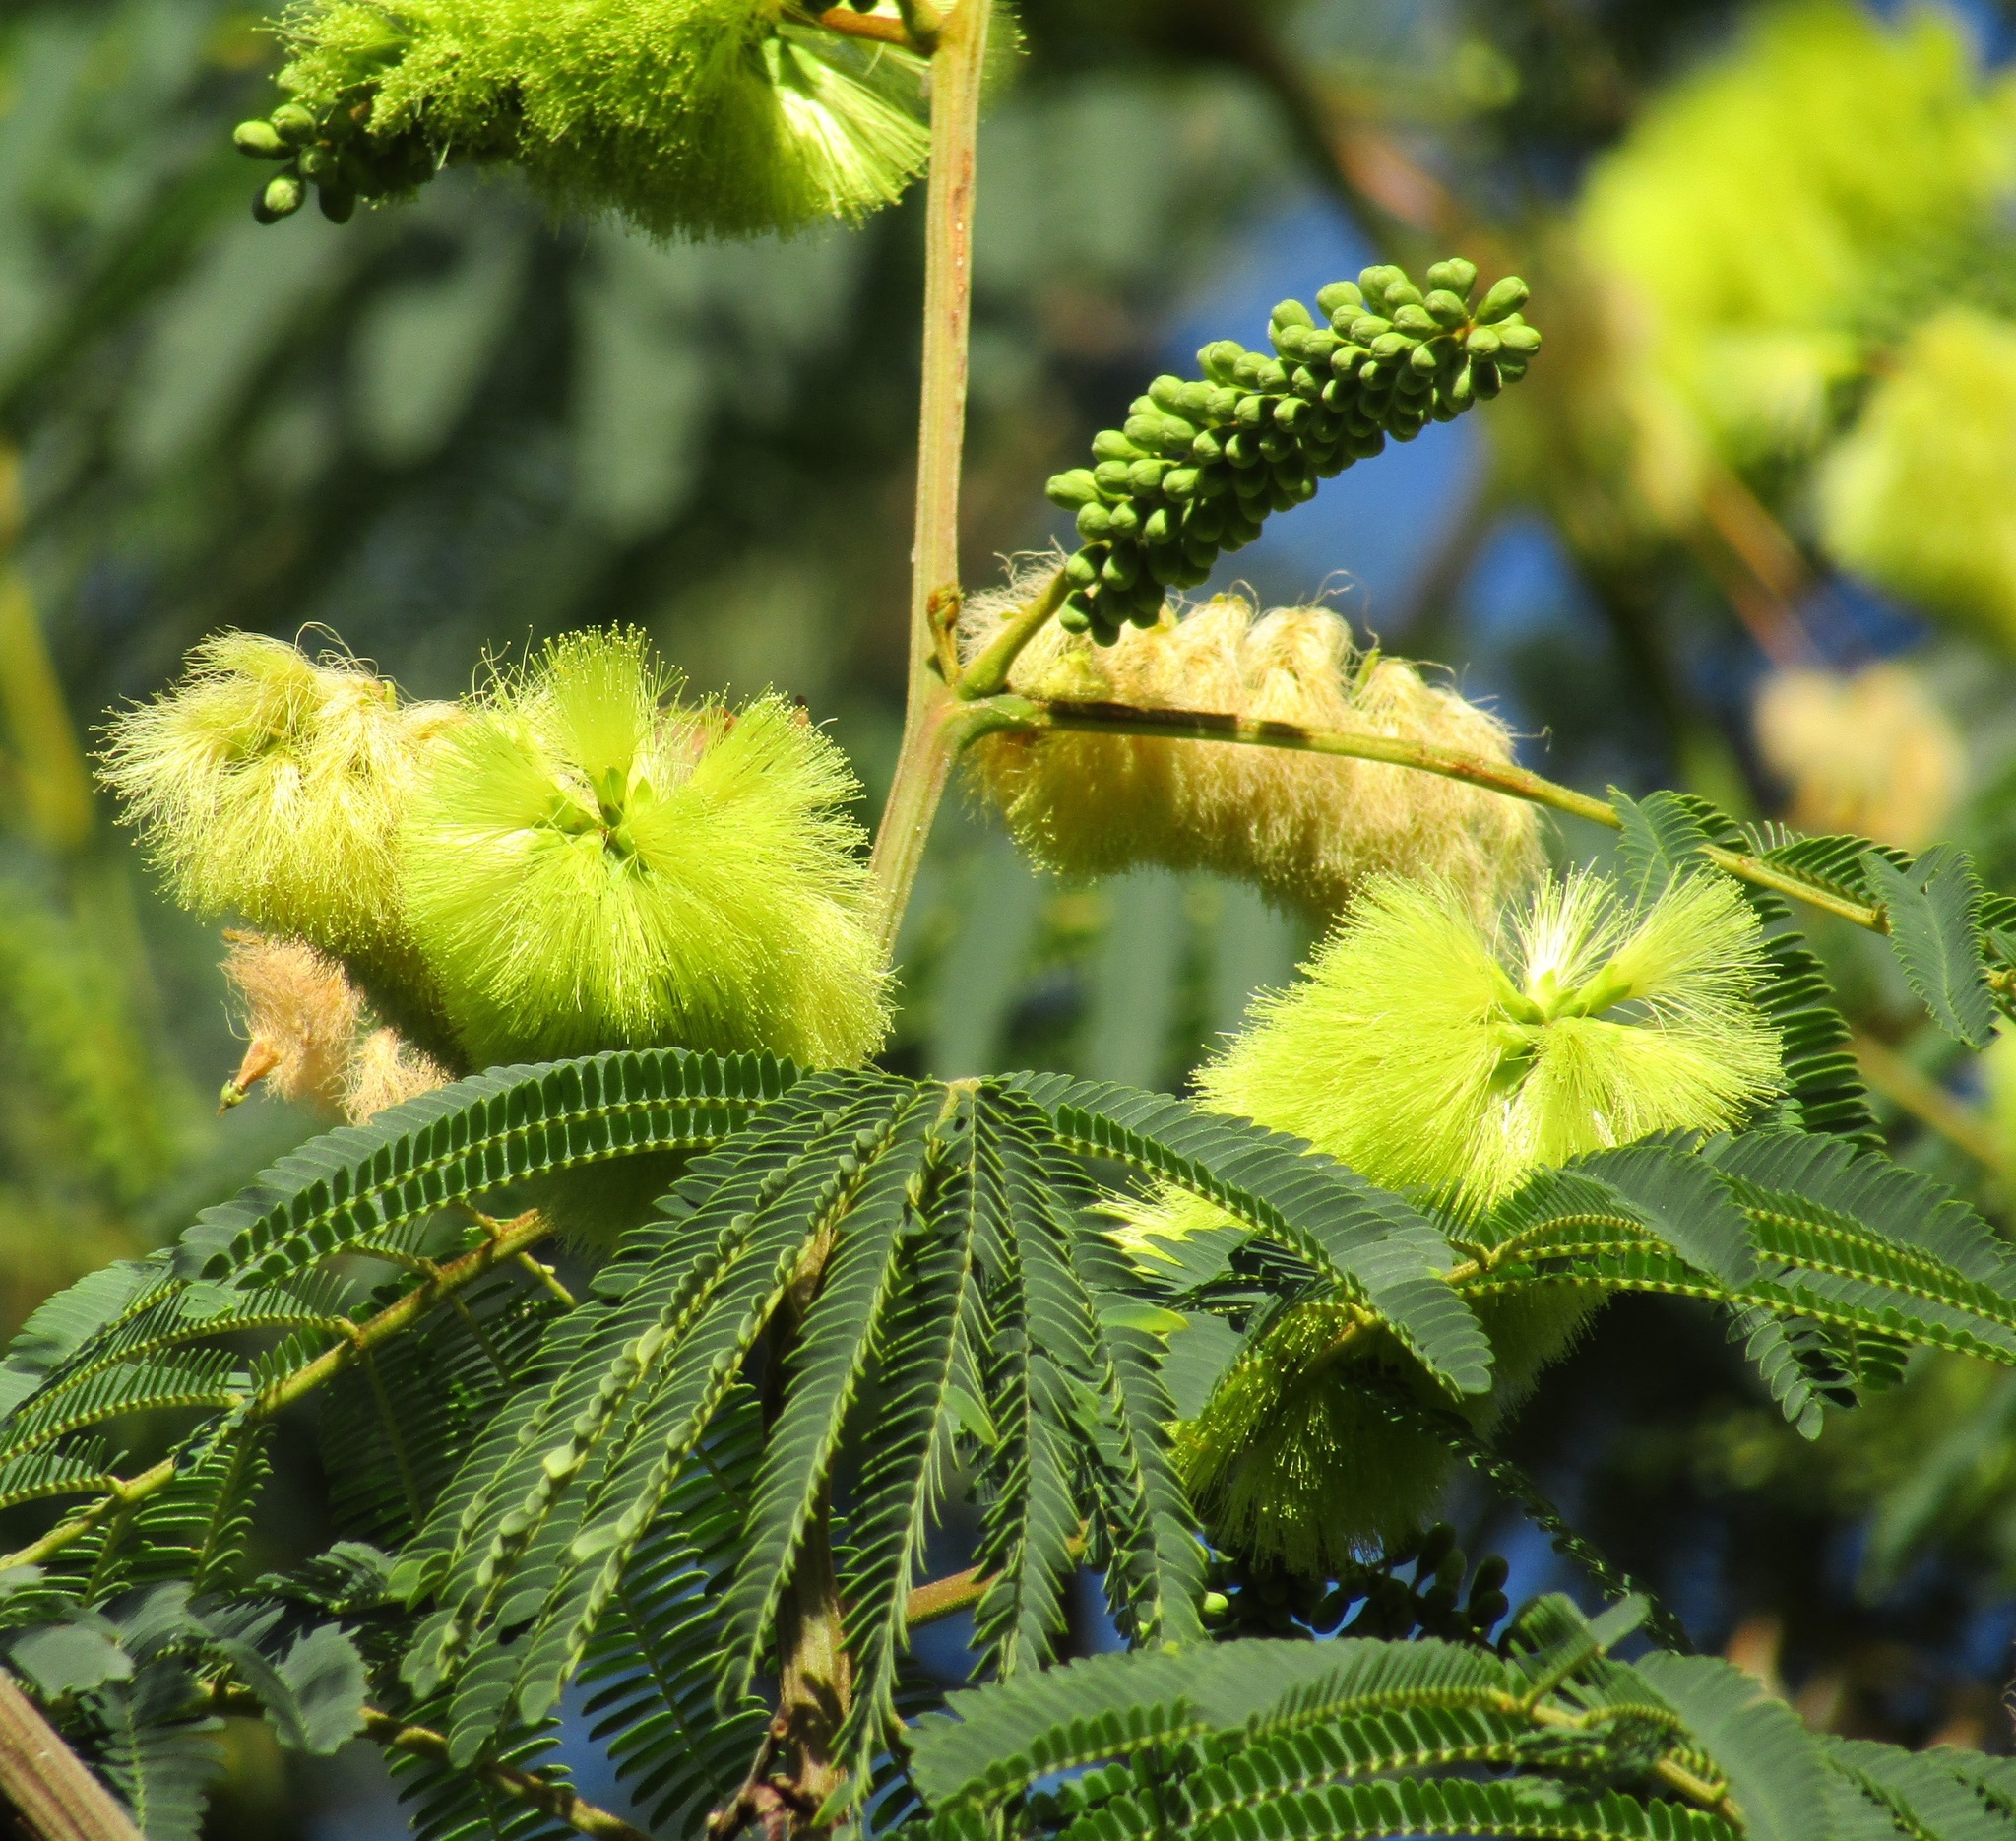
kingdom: Plantae
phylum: Tracheophyta
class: Magnoliopsida
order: Fabales
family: Fabaceae
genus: Paraserianthes
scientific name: Paraserianthes lophantha
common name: Plume albizia
